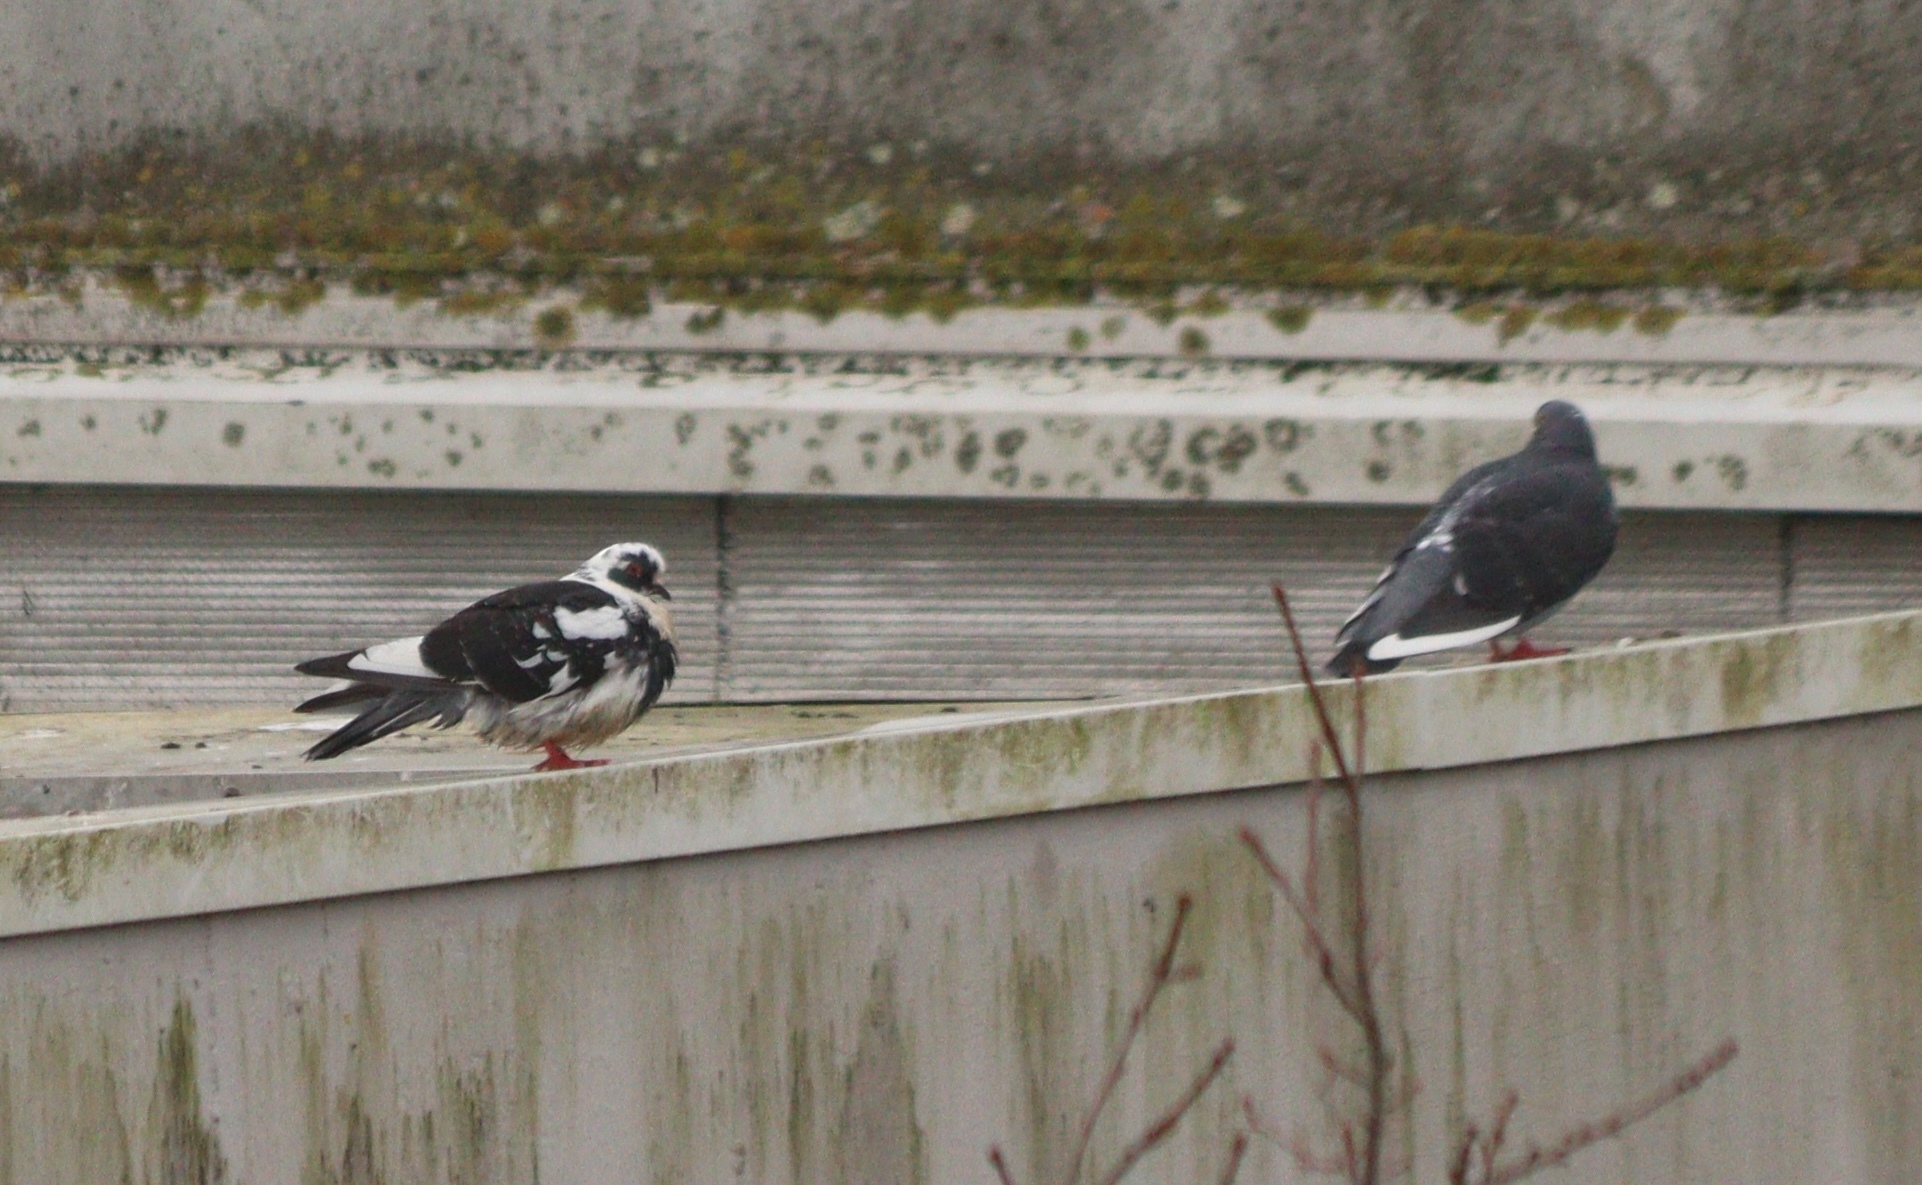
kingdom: Animalia
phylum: Chordata
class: Aves
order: Columbiformes
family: Columbidae
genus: Columba
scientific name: Columba livia
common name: Rock pigeon
